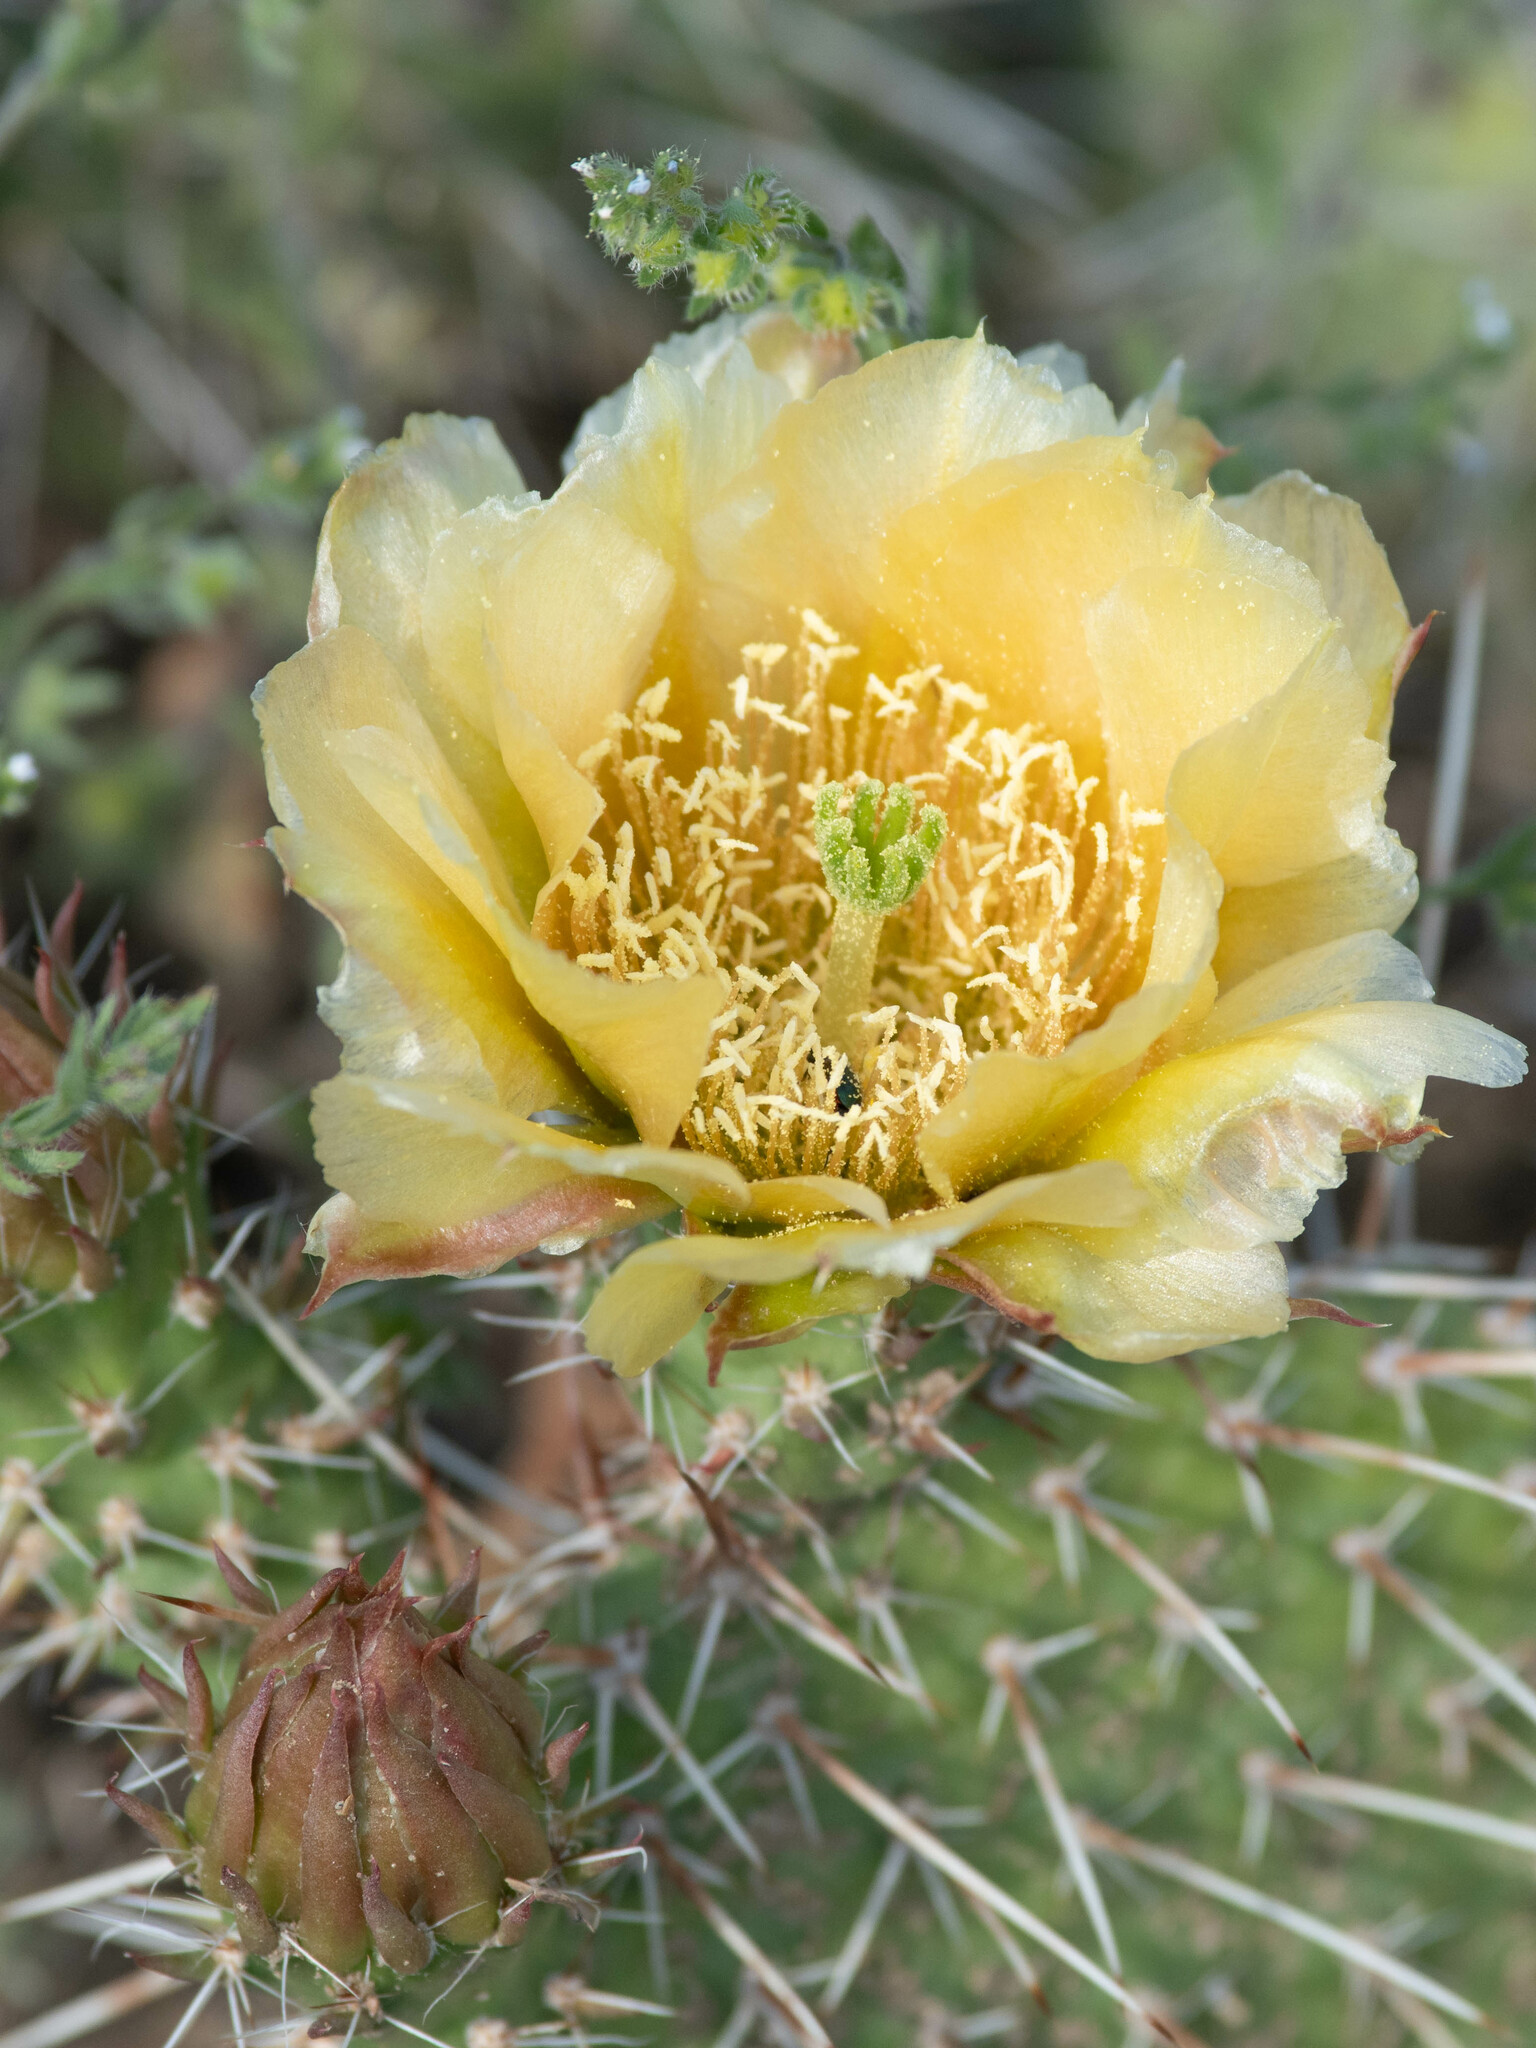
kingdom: Plantae
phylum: Tracheophyta
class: Magnoliopsida
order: Caryophyllales
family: Cactaceae
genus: Opuntia
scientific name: Opuntia polyacantha
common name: Plains prickly-pear
